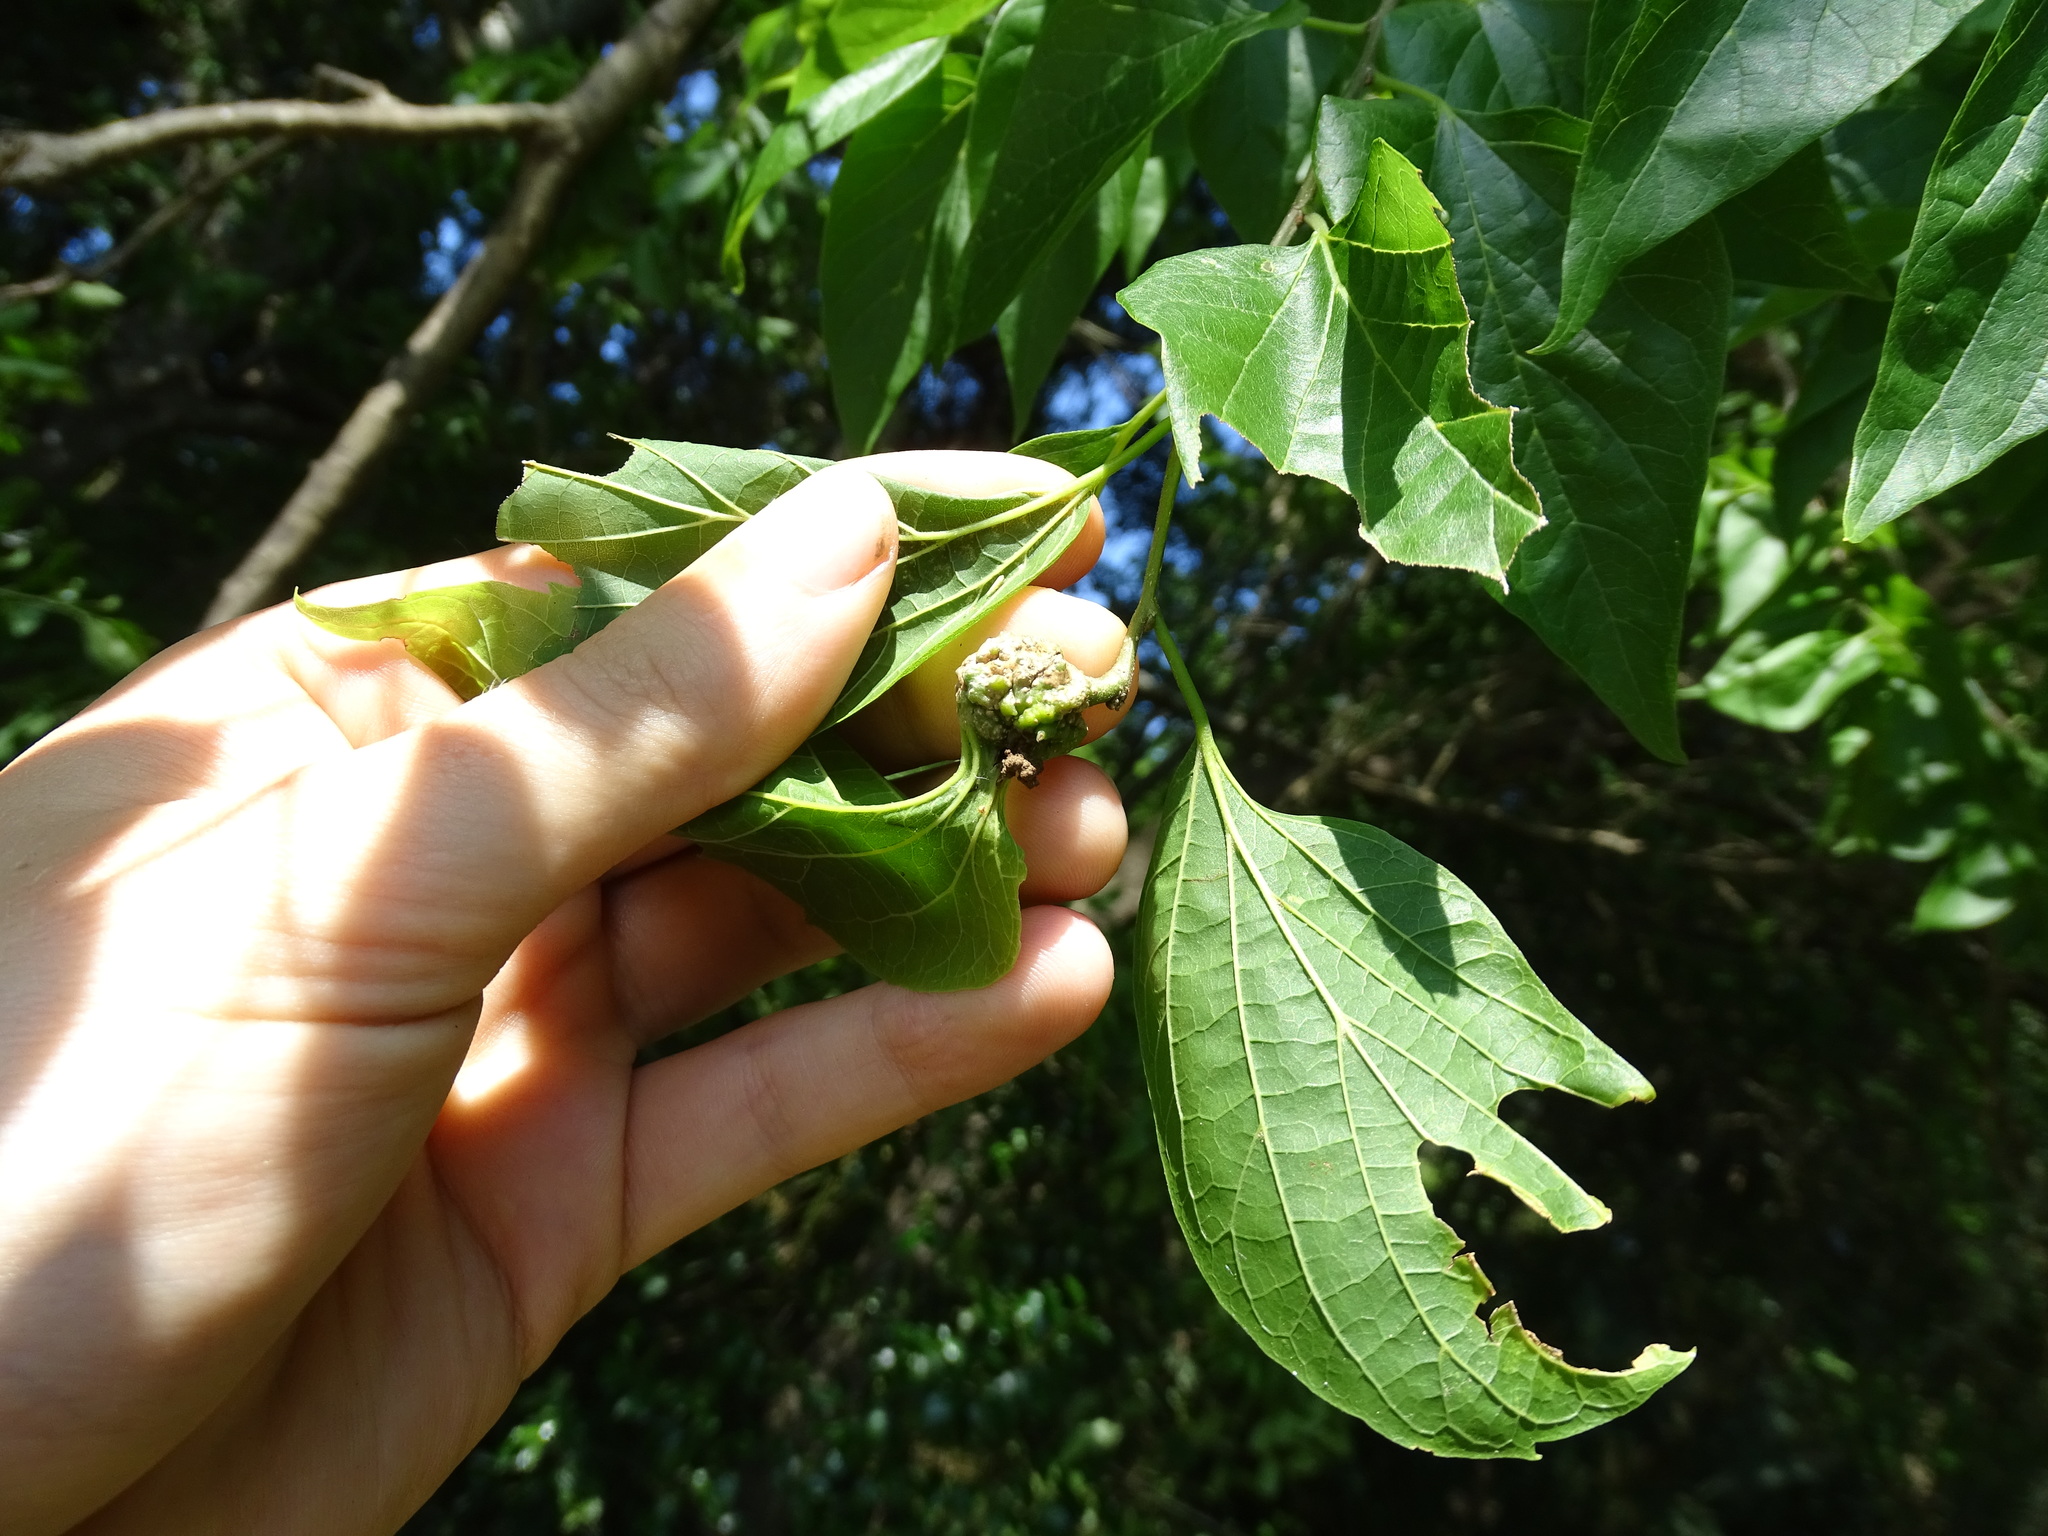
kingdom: Animalia
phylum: Arthropoda
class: Insecta
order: Hemiptera
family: Aphalaridae
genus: Pachypsylla
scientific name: Pachypsylla venusta
